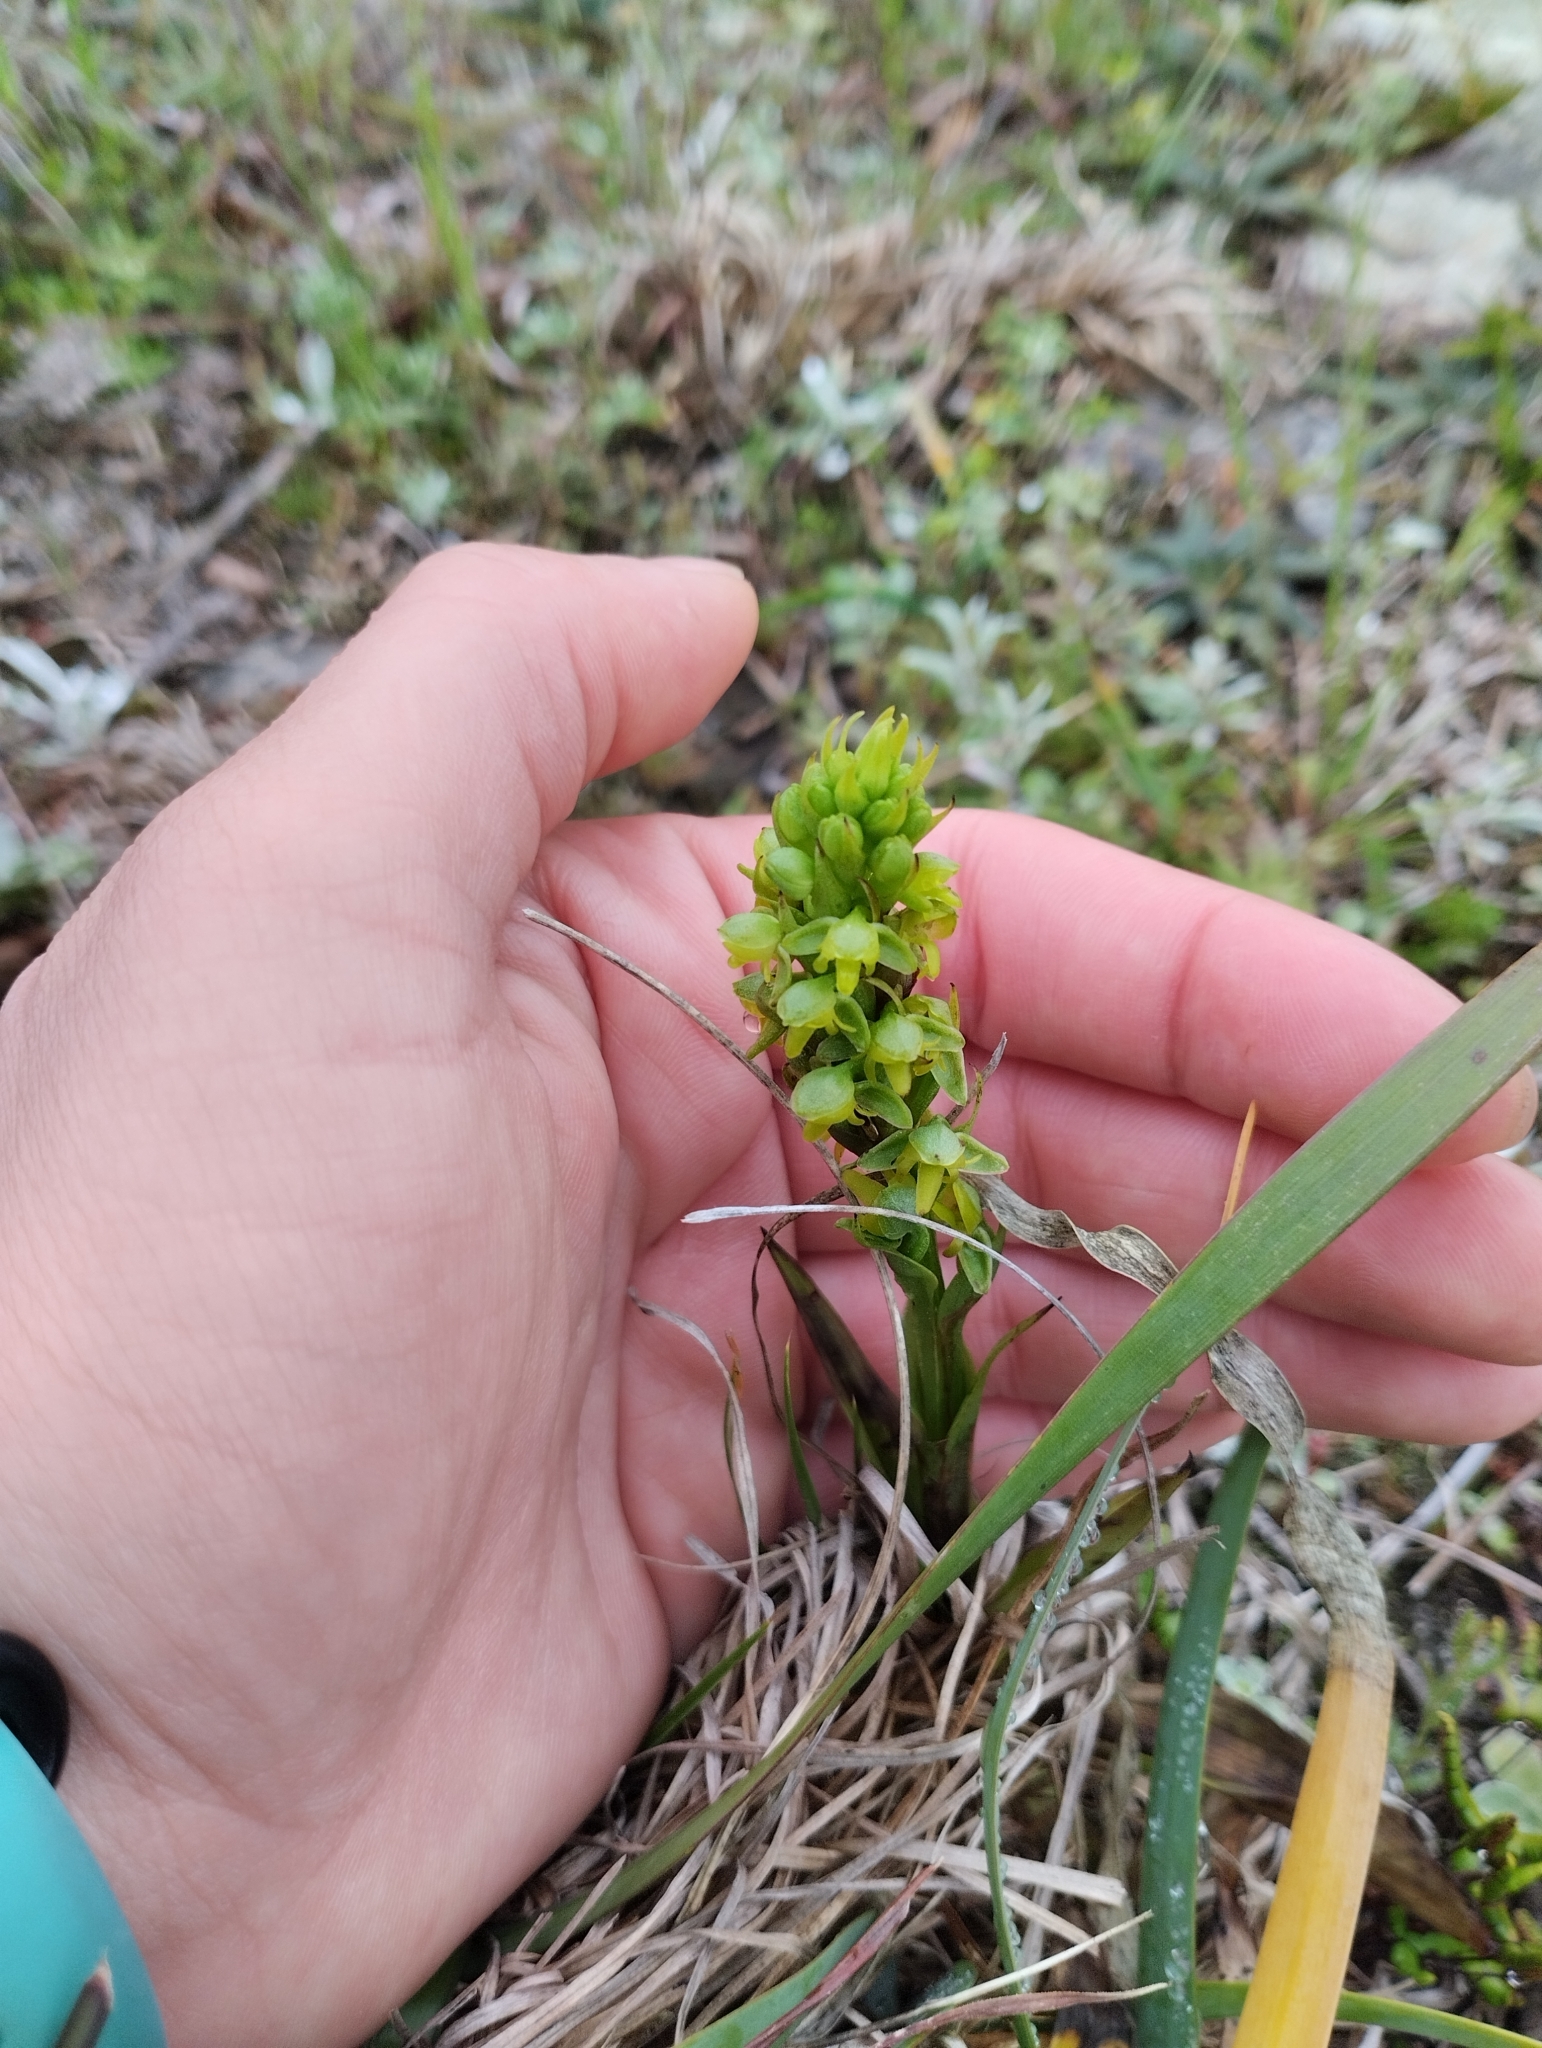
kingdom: Plantae
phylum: Tracheophyta
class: Liliopsida
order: Asparagales
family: Orchidaceae
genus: Habenaria
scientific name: Habenaria parviflora
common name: Small flowered habenaria
